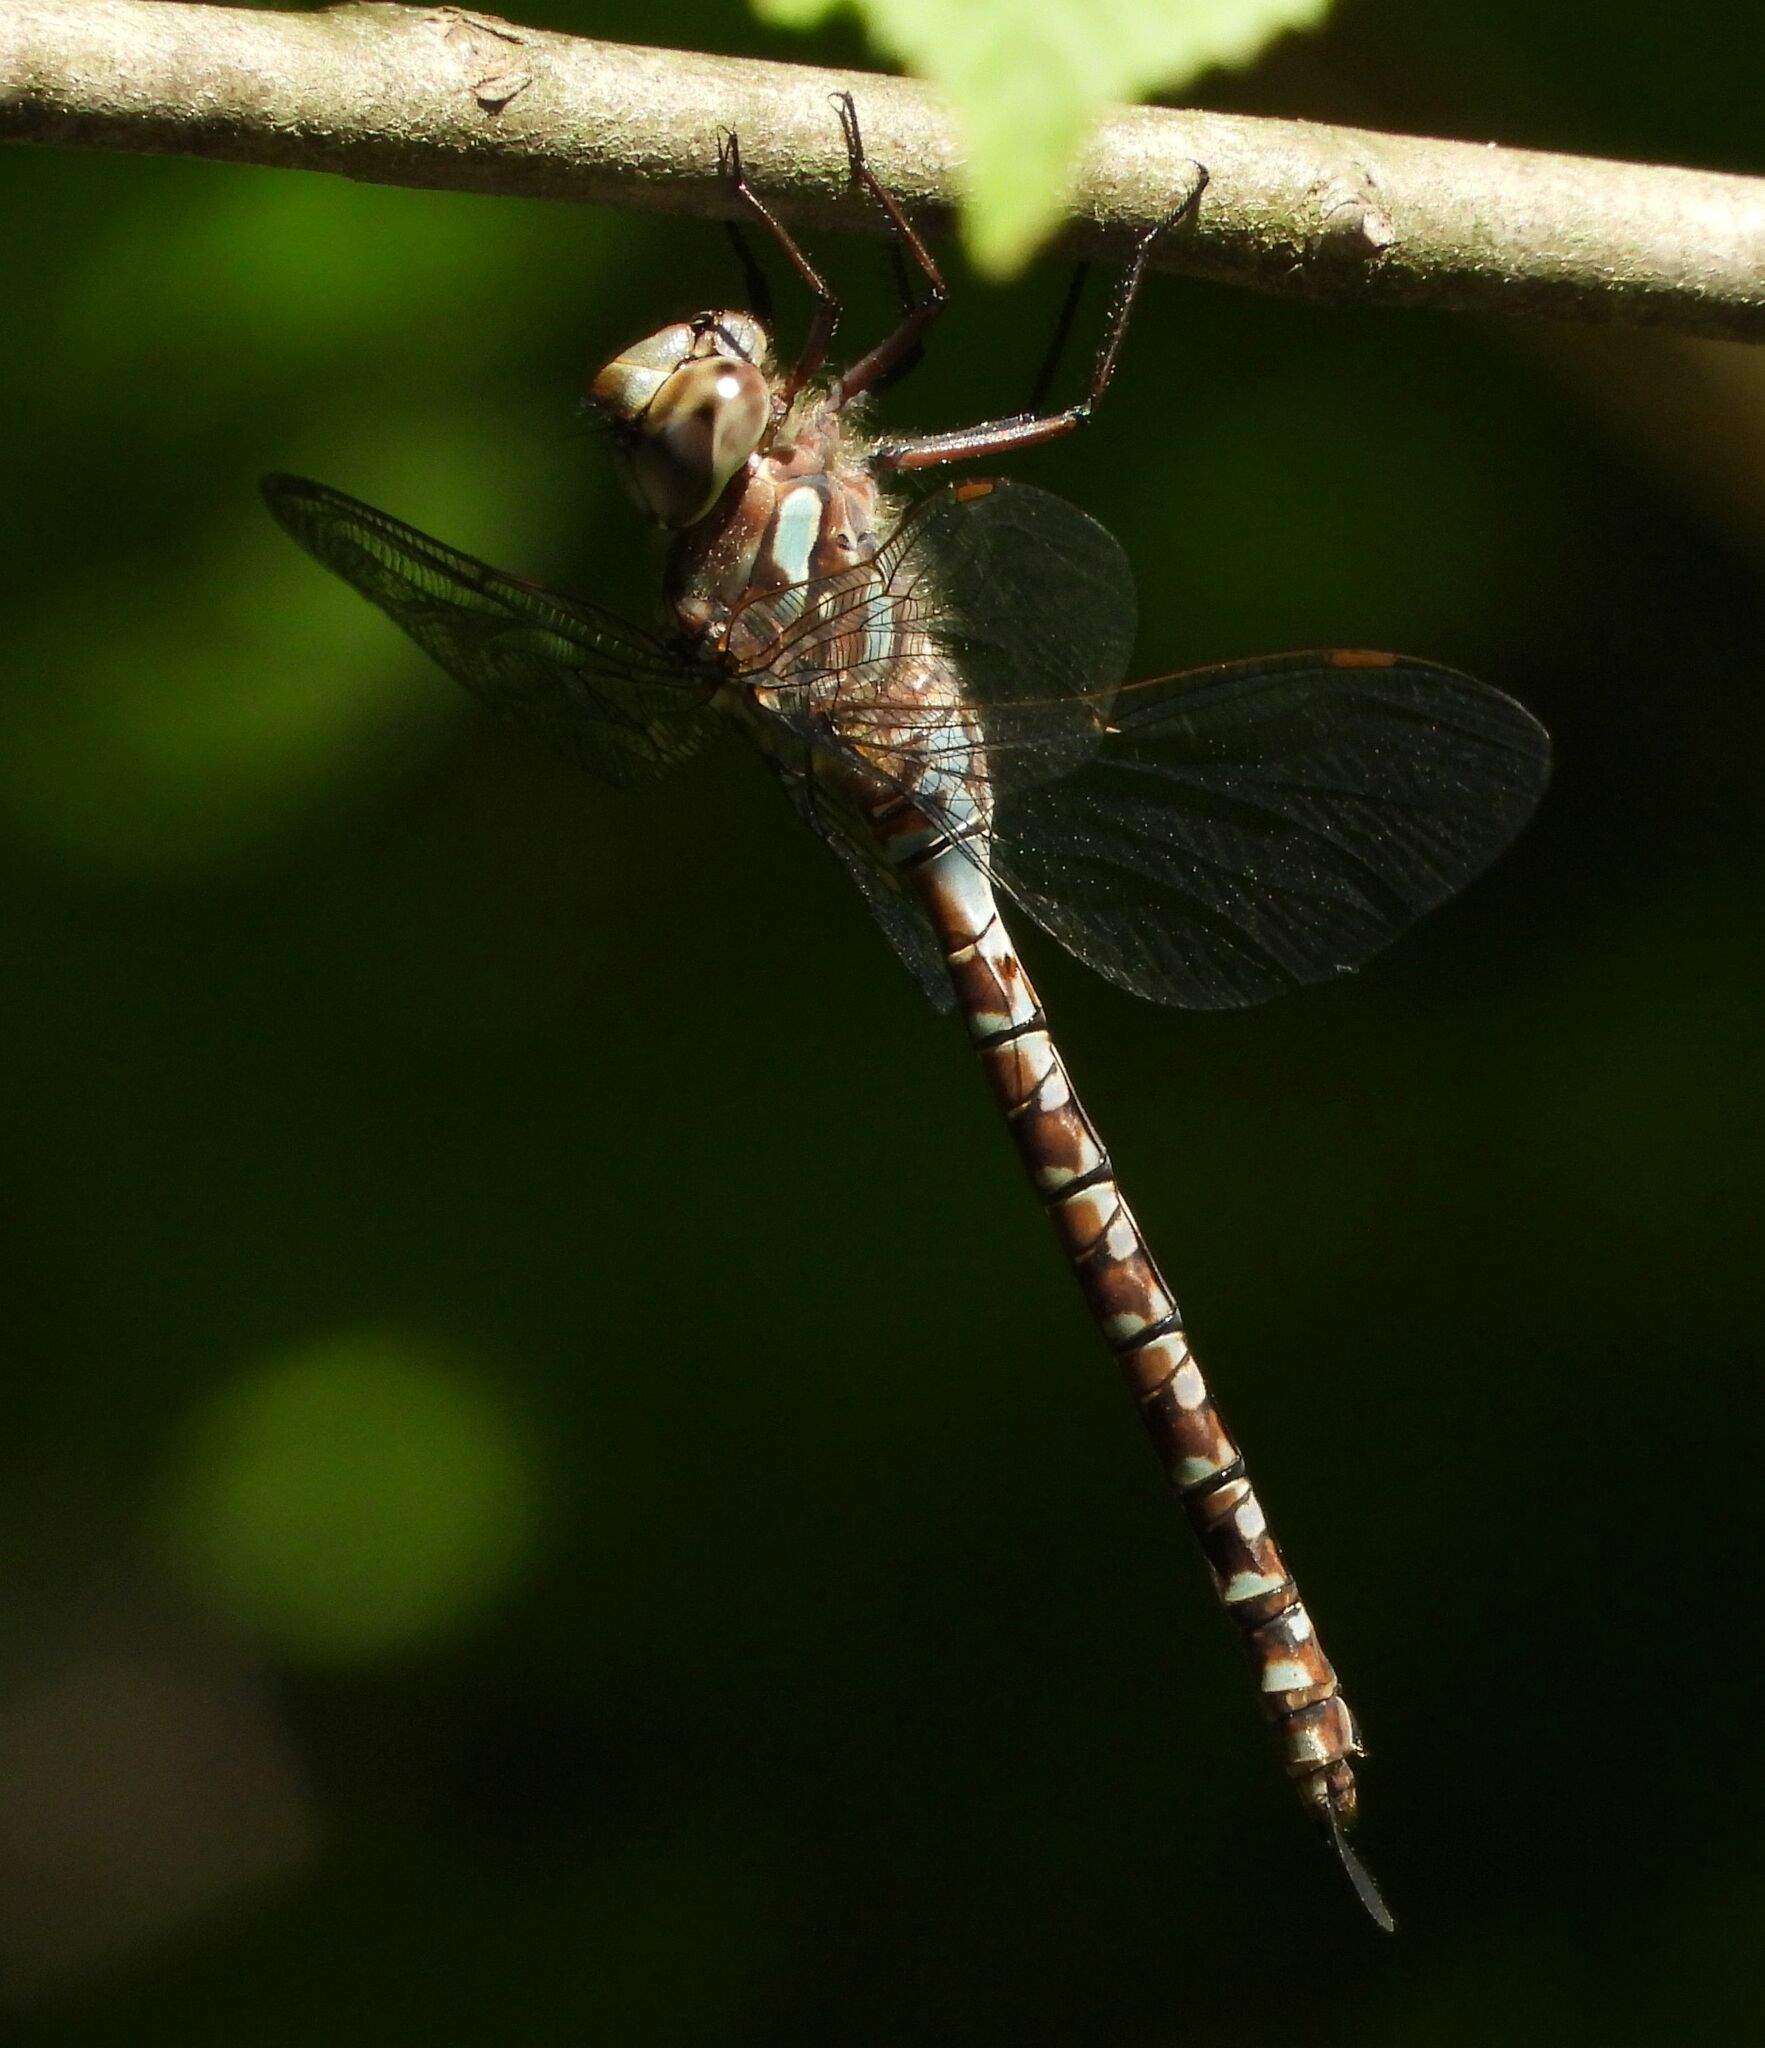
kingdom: Animalia
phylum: Arthropoda
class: Insecta
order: Odonata
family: Aeshnidae
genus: Aeshna
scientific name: Aeshna canadensis
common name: Canada darner
